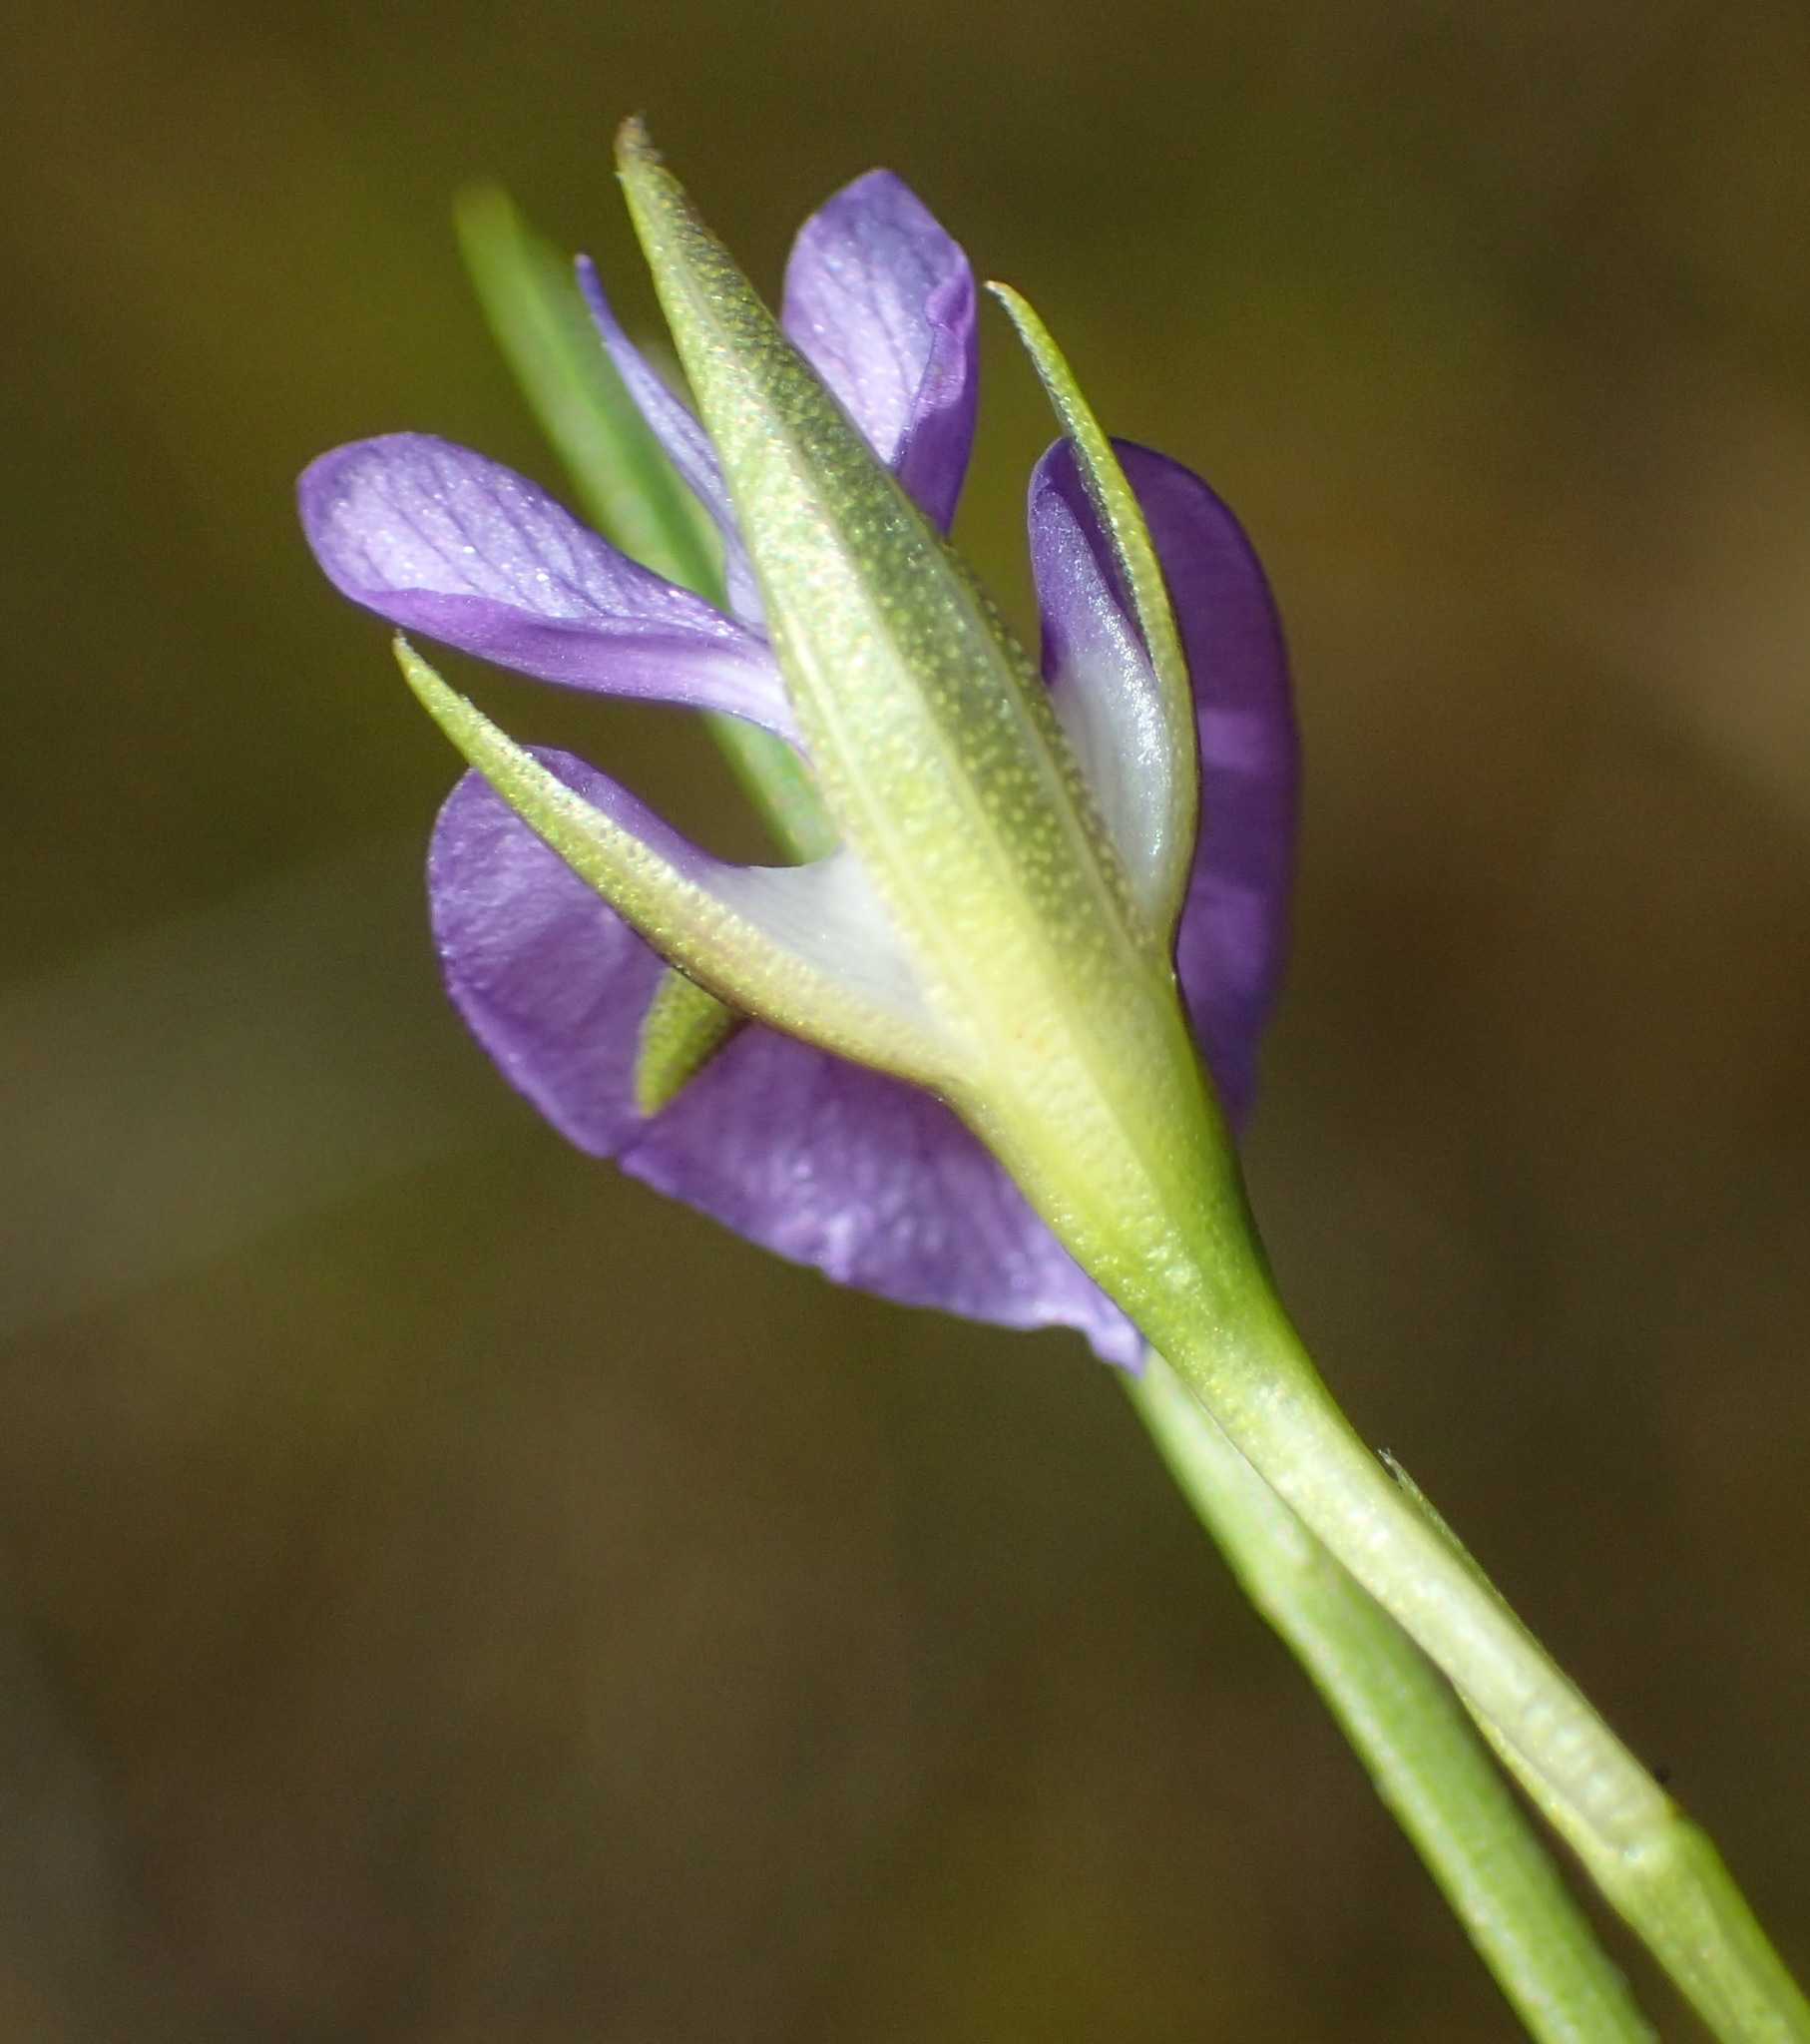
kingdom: Plantae
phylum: Tracheophyta
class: Magnoliopsida
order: Fabales
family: Fabaceae
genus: Psoralea
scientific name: Psoralea trullata
